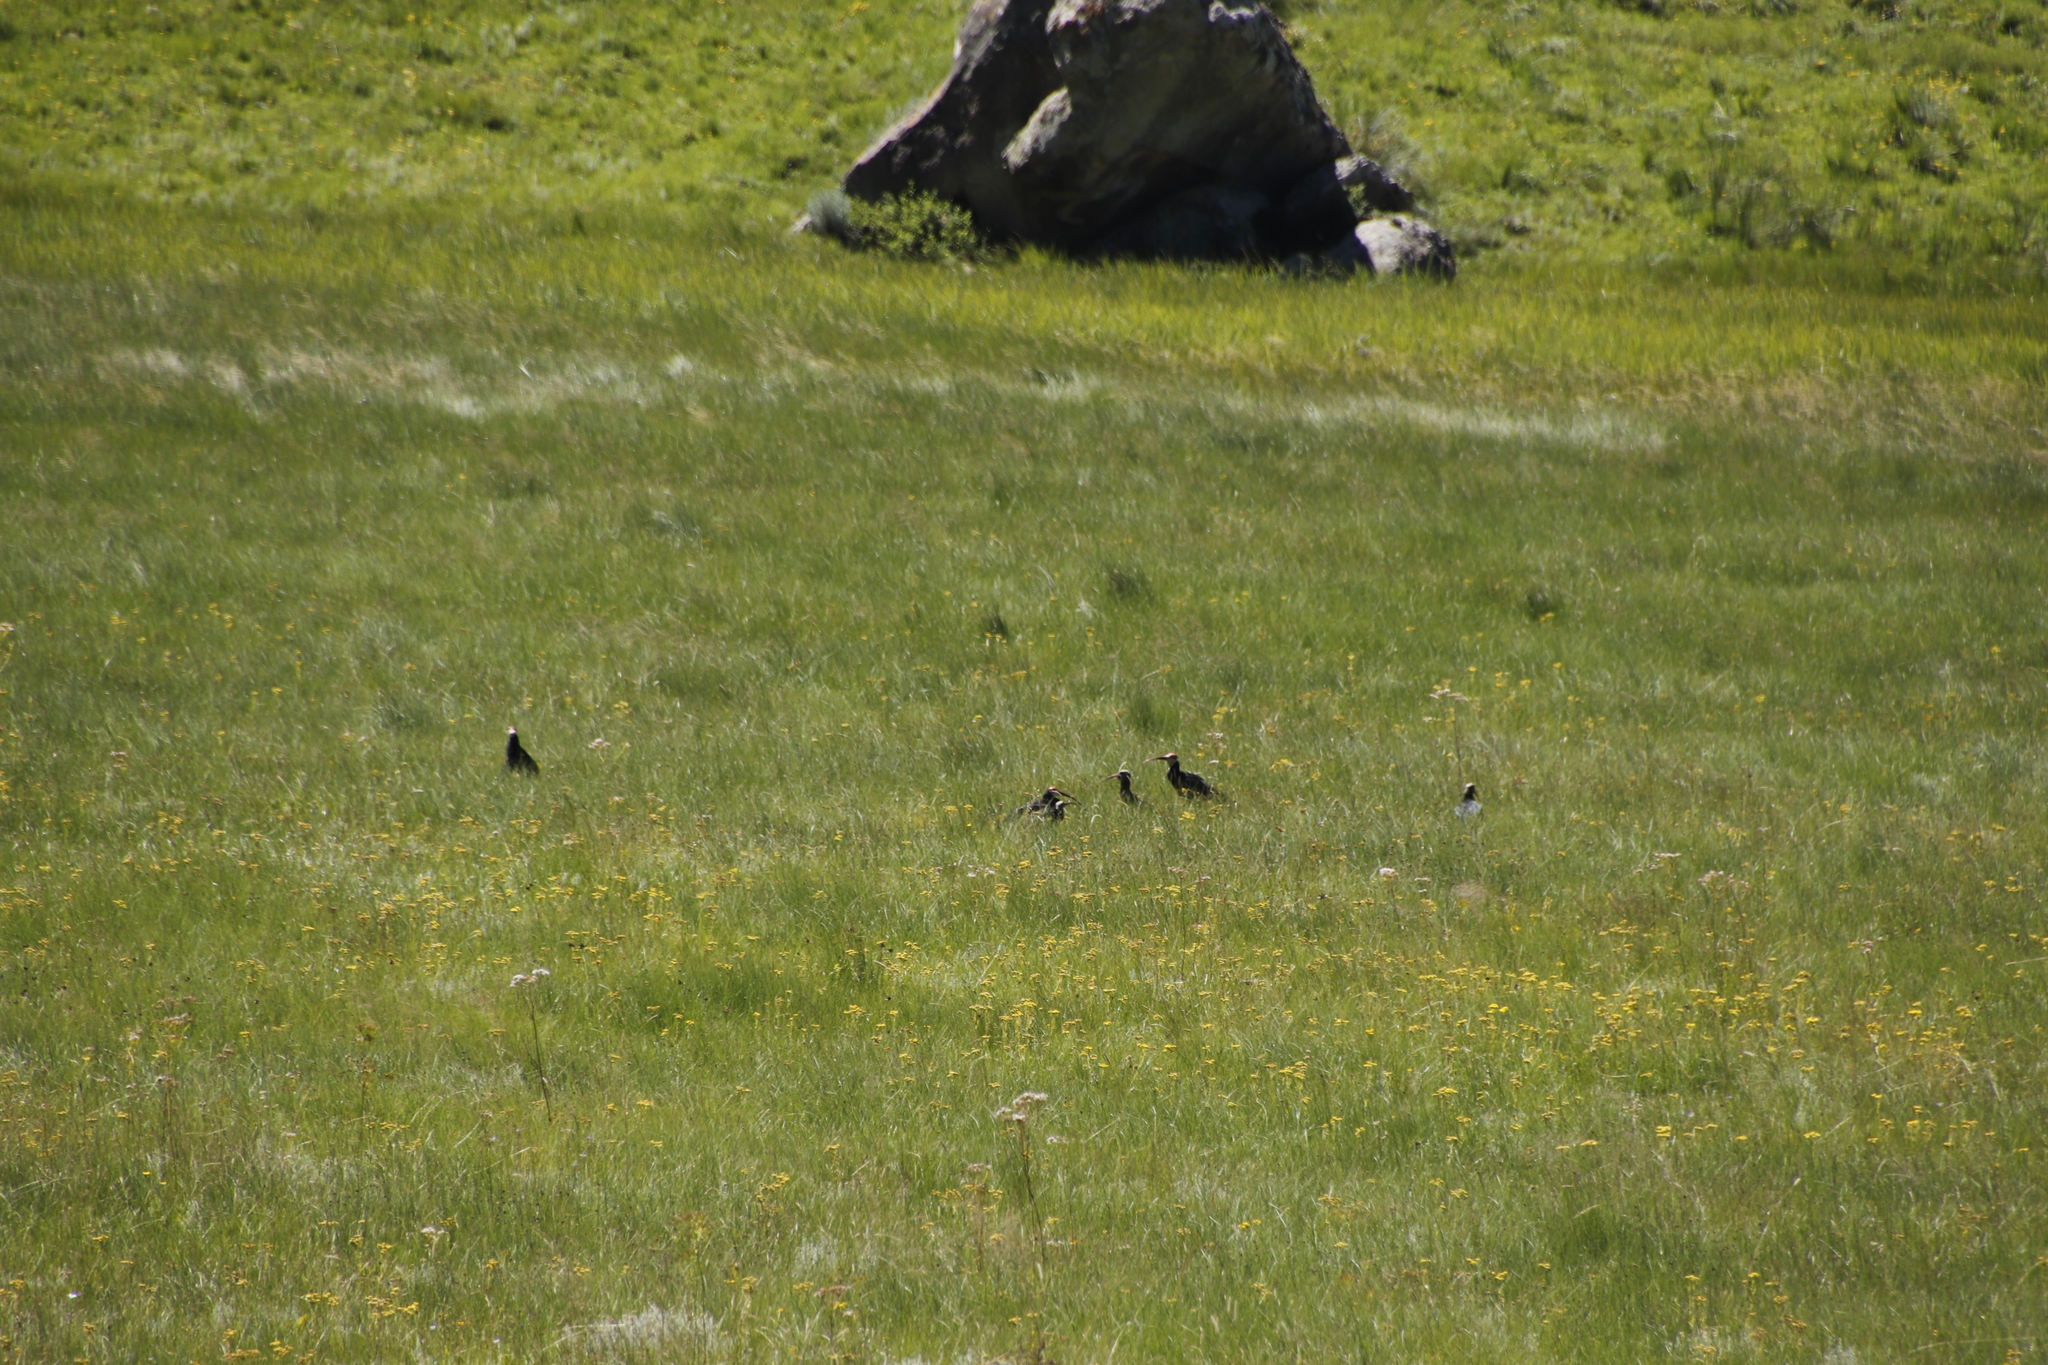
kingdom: Animalia
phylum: Chordata
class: Aves
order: Pelecaniformes
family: Threskiornithidae
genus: Geronticus
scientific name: Geronticus calvus
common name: Southern bald ibis
